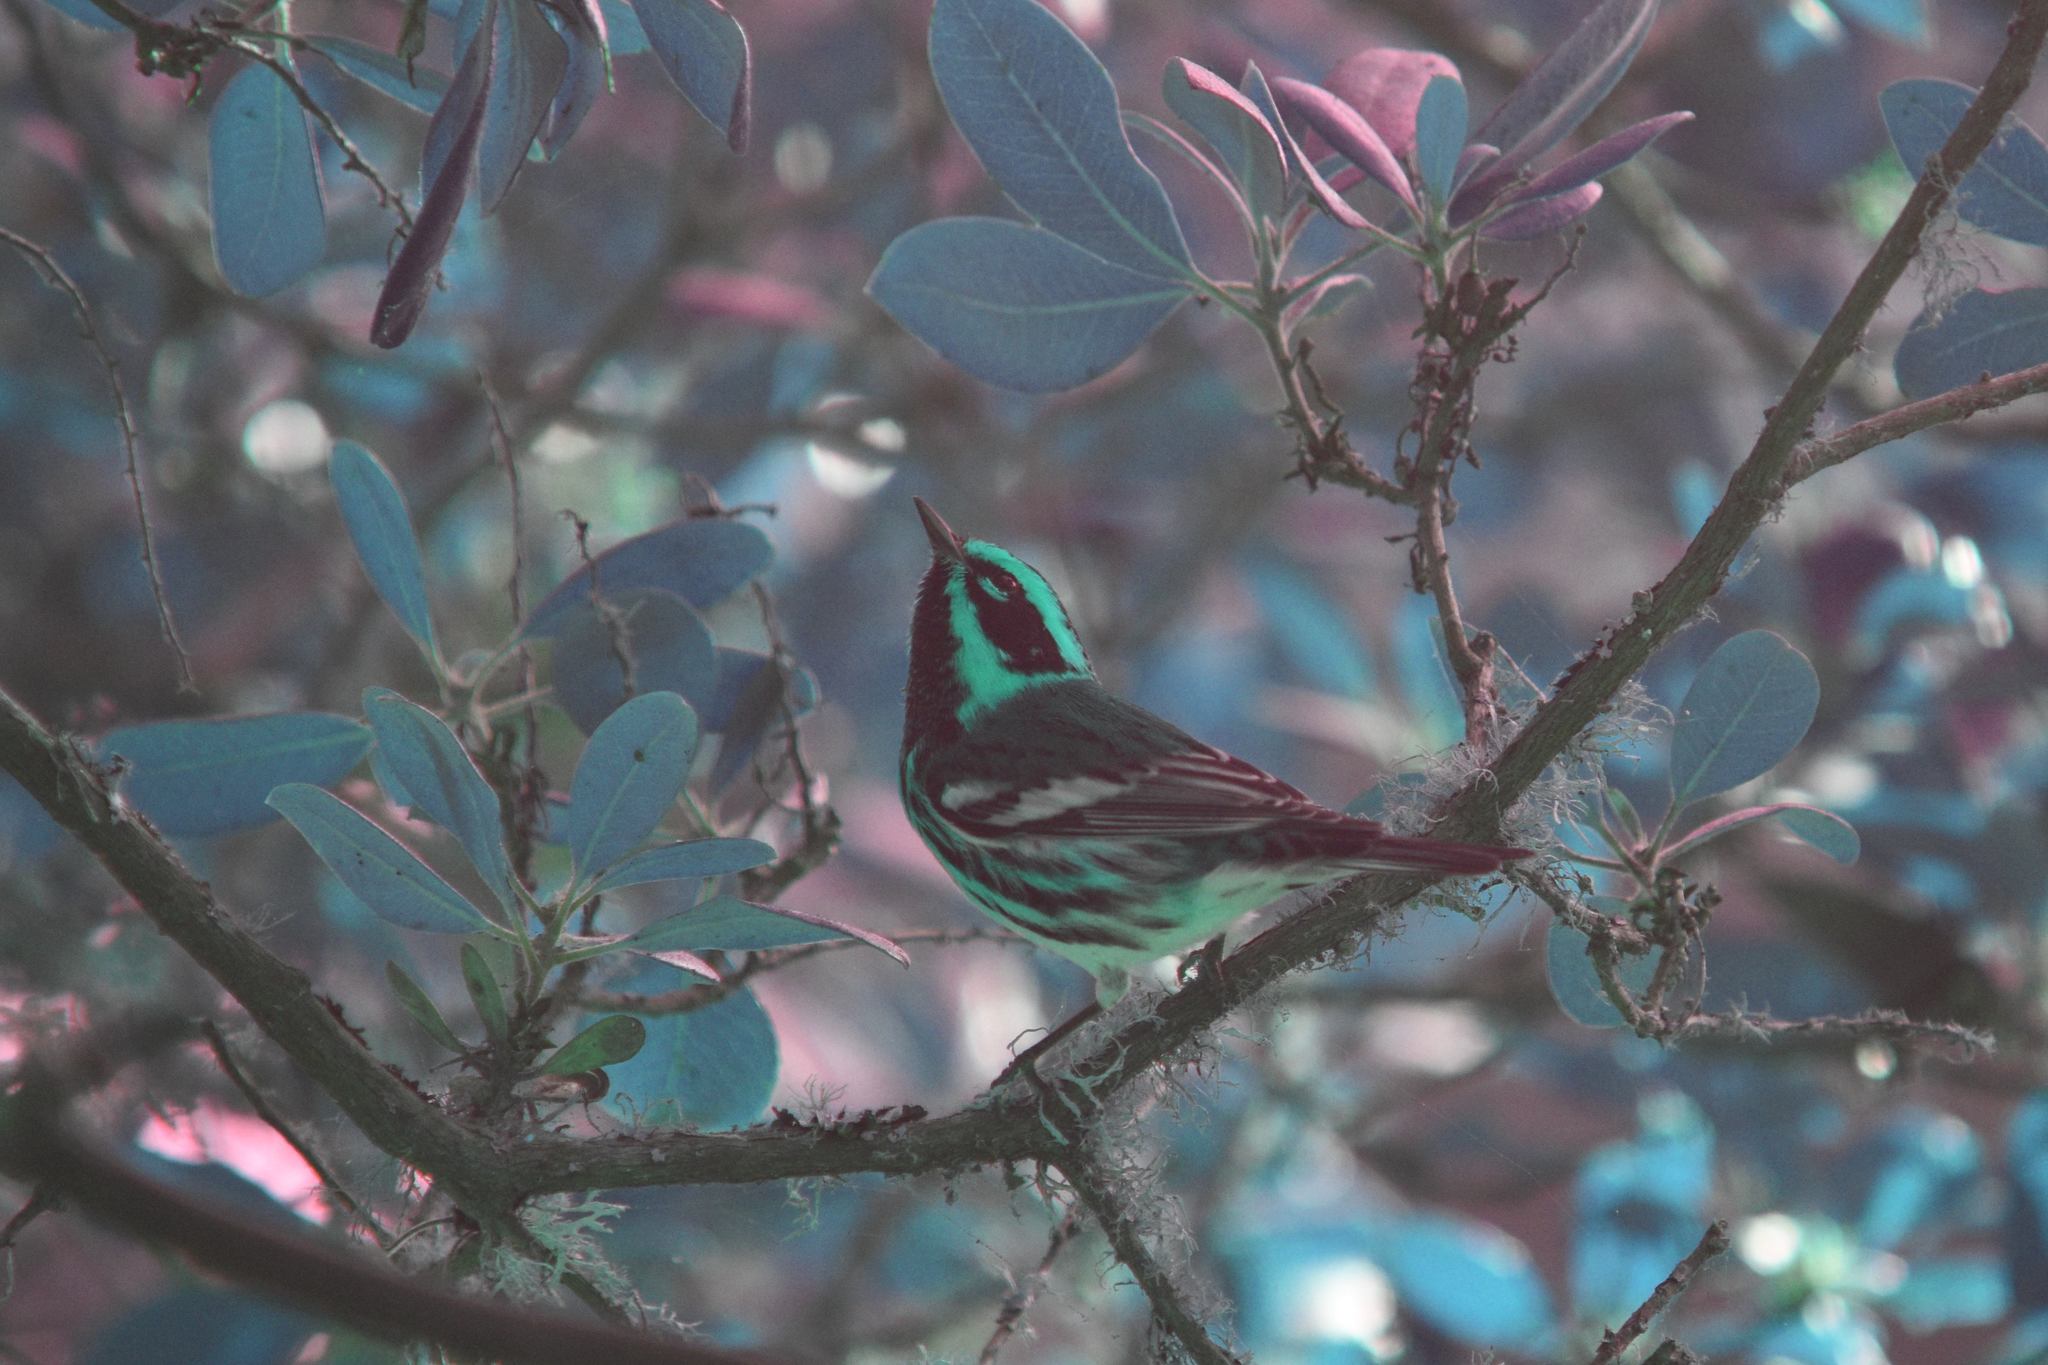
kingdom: Animalia
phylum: Chordata
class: Aves
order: Passeriformes
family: Parulidae
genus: Setophaga
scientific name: Setophaga townsendi
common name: Townsend's warbler
